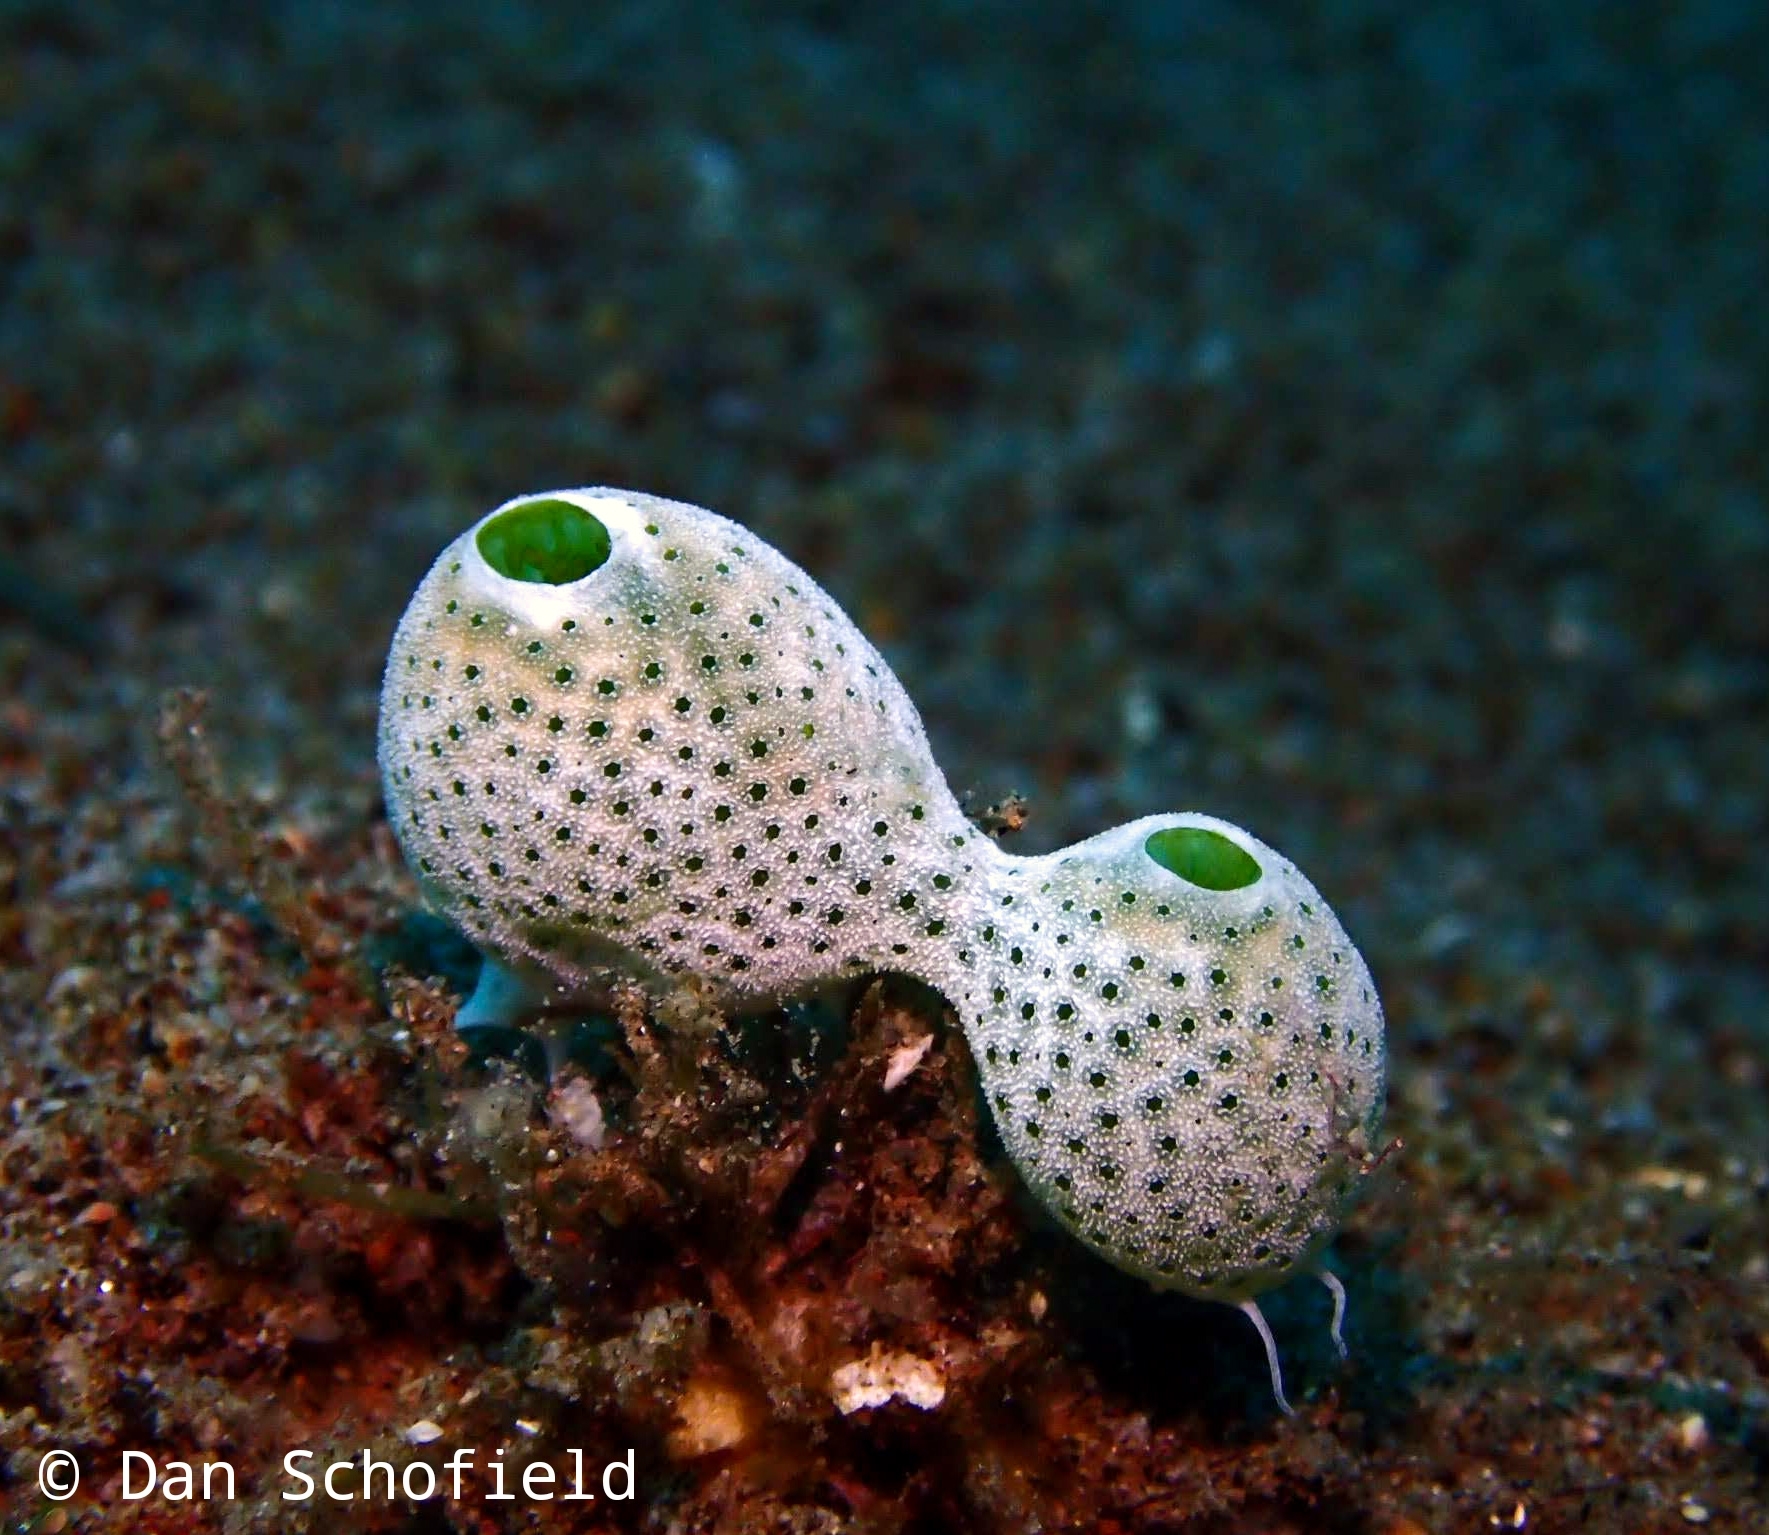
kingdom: Animalia
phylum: Chordata
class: Ascidiacea
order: Aplousobranchia
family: Didemnidae
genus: Didemnum
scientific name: Didemnum molle
